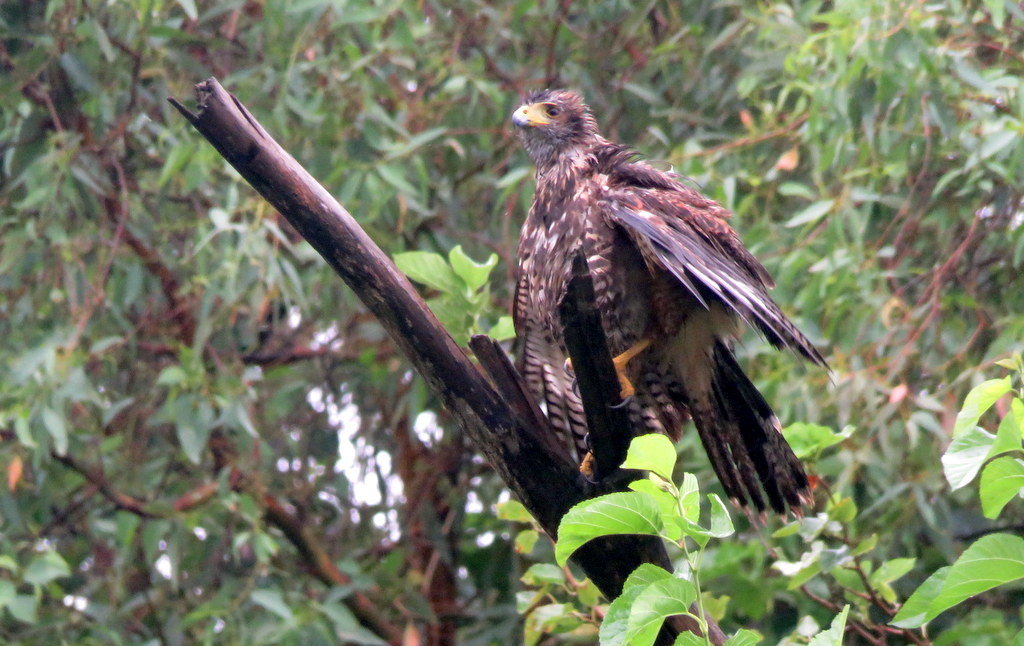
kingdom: Animalia
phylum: Chordata
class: Aves
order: Accipitriformes
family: Accipitridae
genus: Parabuteo
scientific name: Parabuteo unicinctus
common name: Harris's hawk
